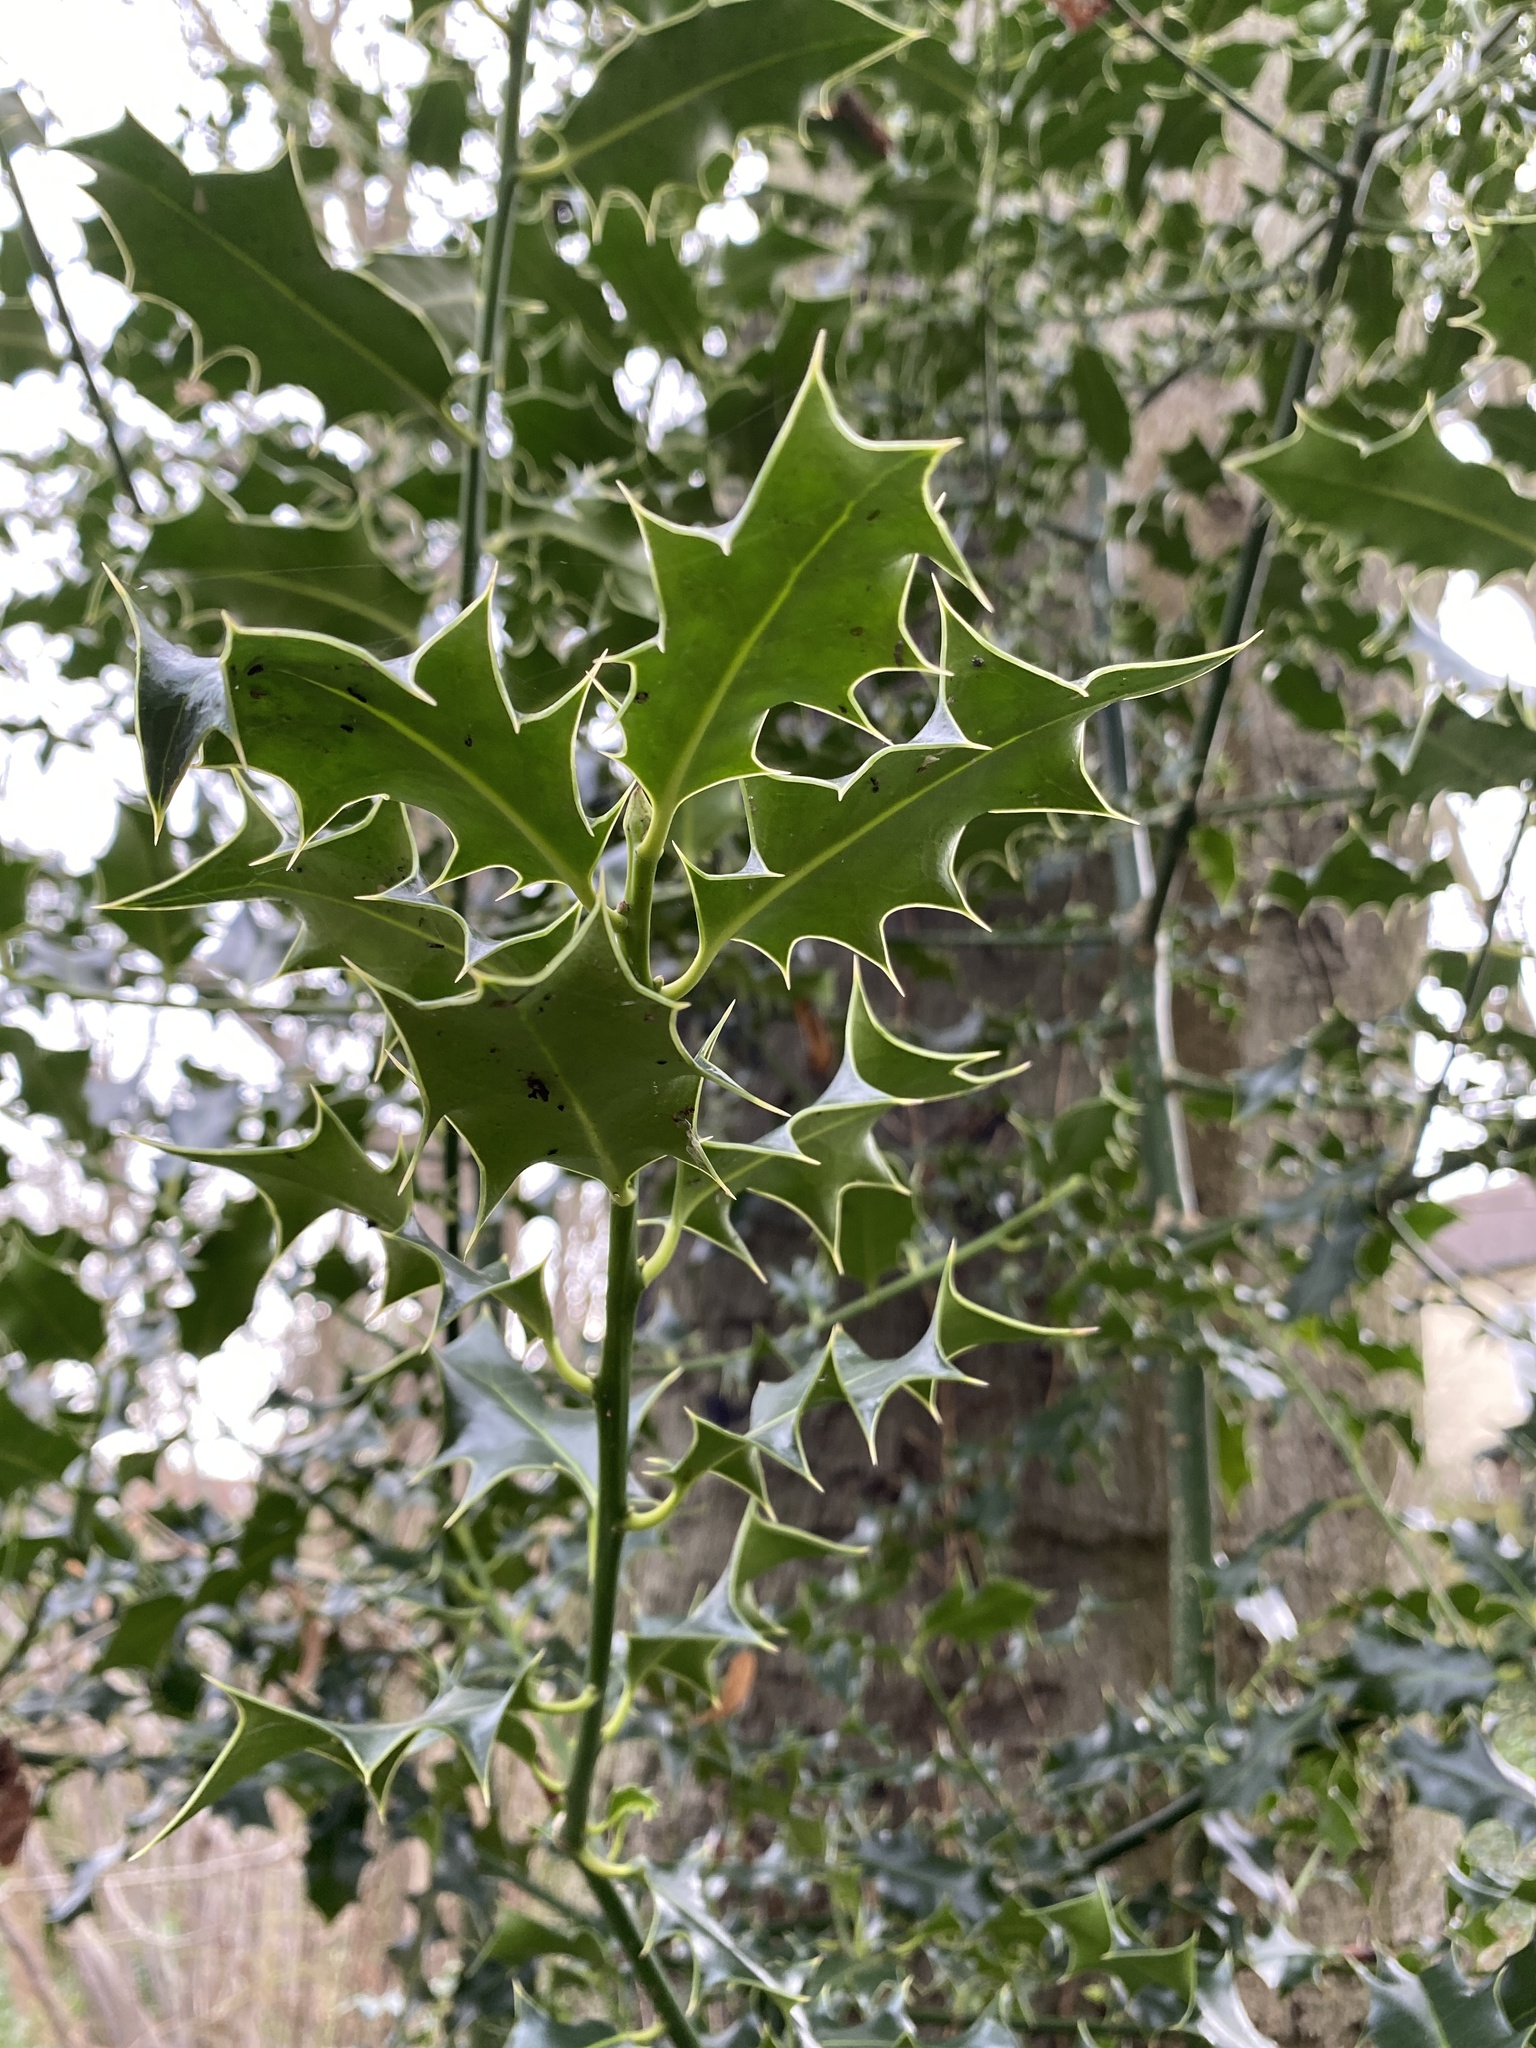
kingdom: Plantae
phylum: Tracheophyta
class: Magnoliopsida
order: Aquifoliales
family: Aquifoliaceae
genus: Ilex
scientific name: Ilex aquifolium
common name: English holly
